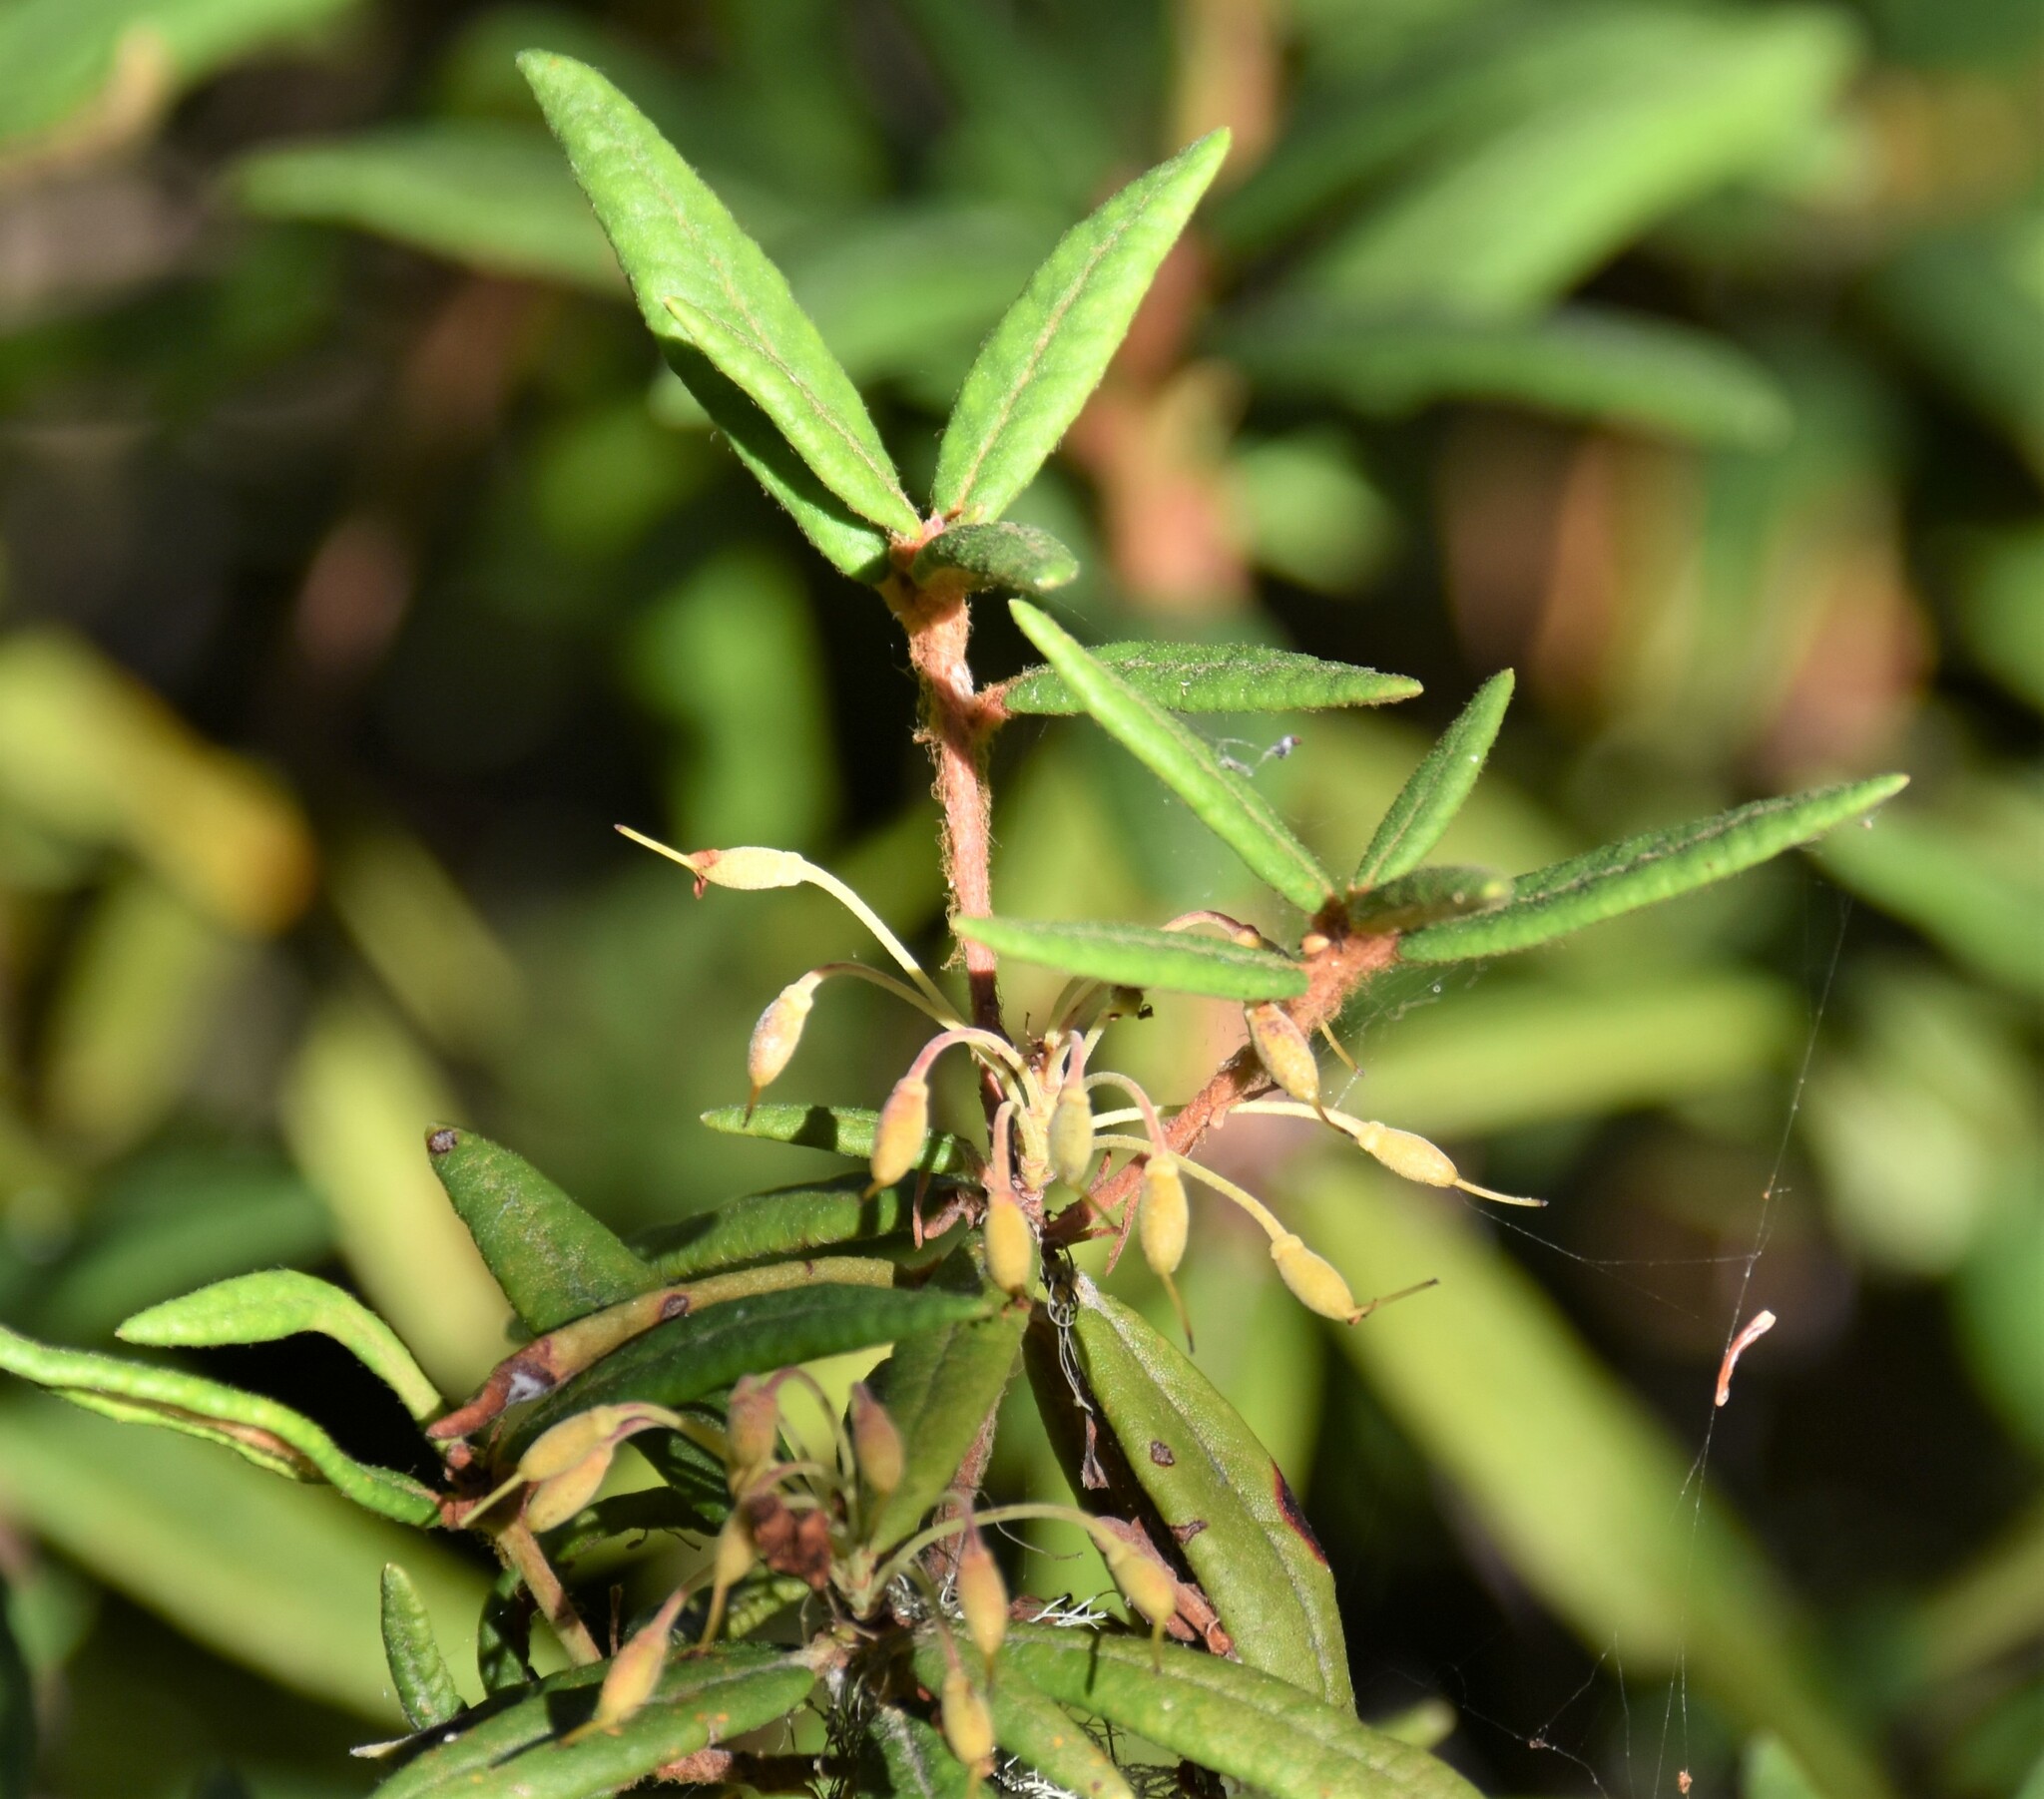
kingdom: Plantae
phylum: Tracheophyta
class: Magnoliopsida
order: Ericales
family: Ericaceae
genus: Rhododendron
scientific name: Rhododendron groenlandicum
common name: Bog labrador tea
